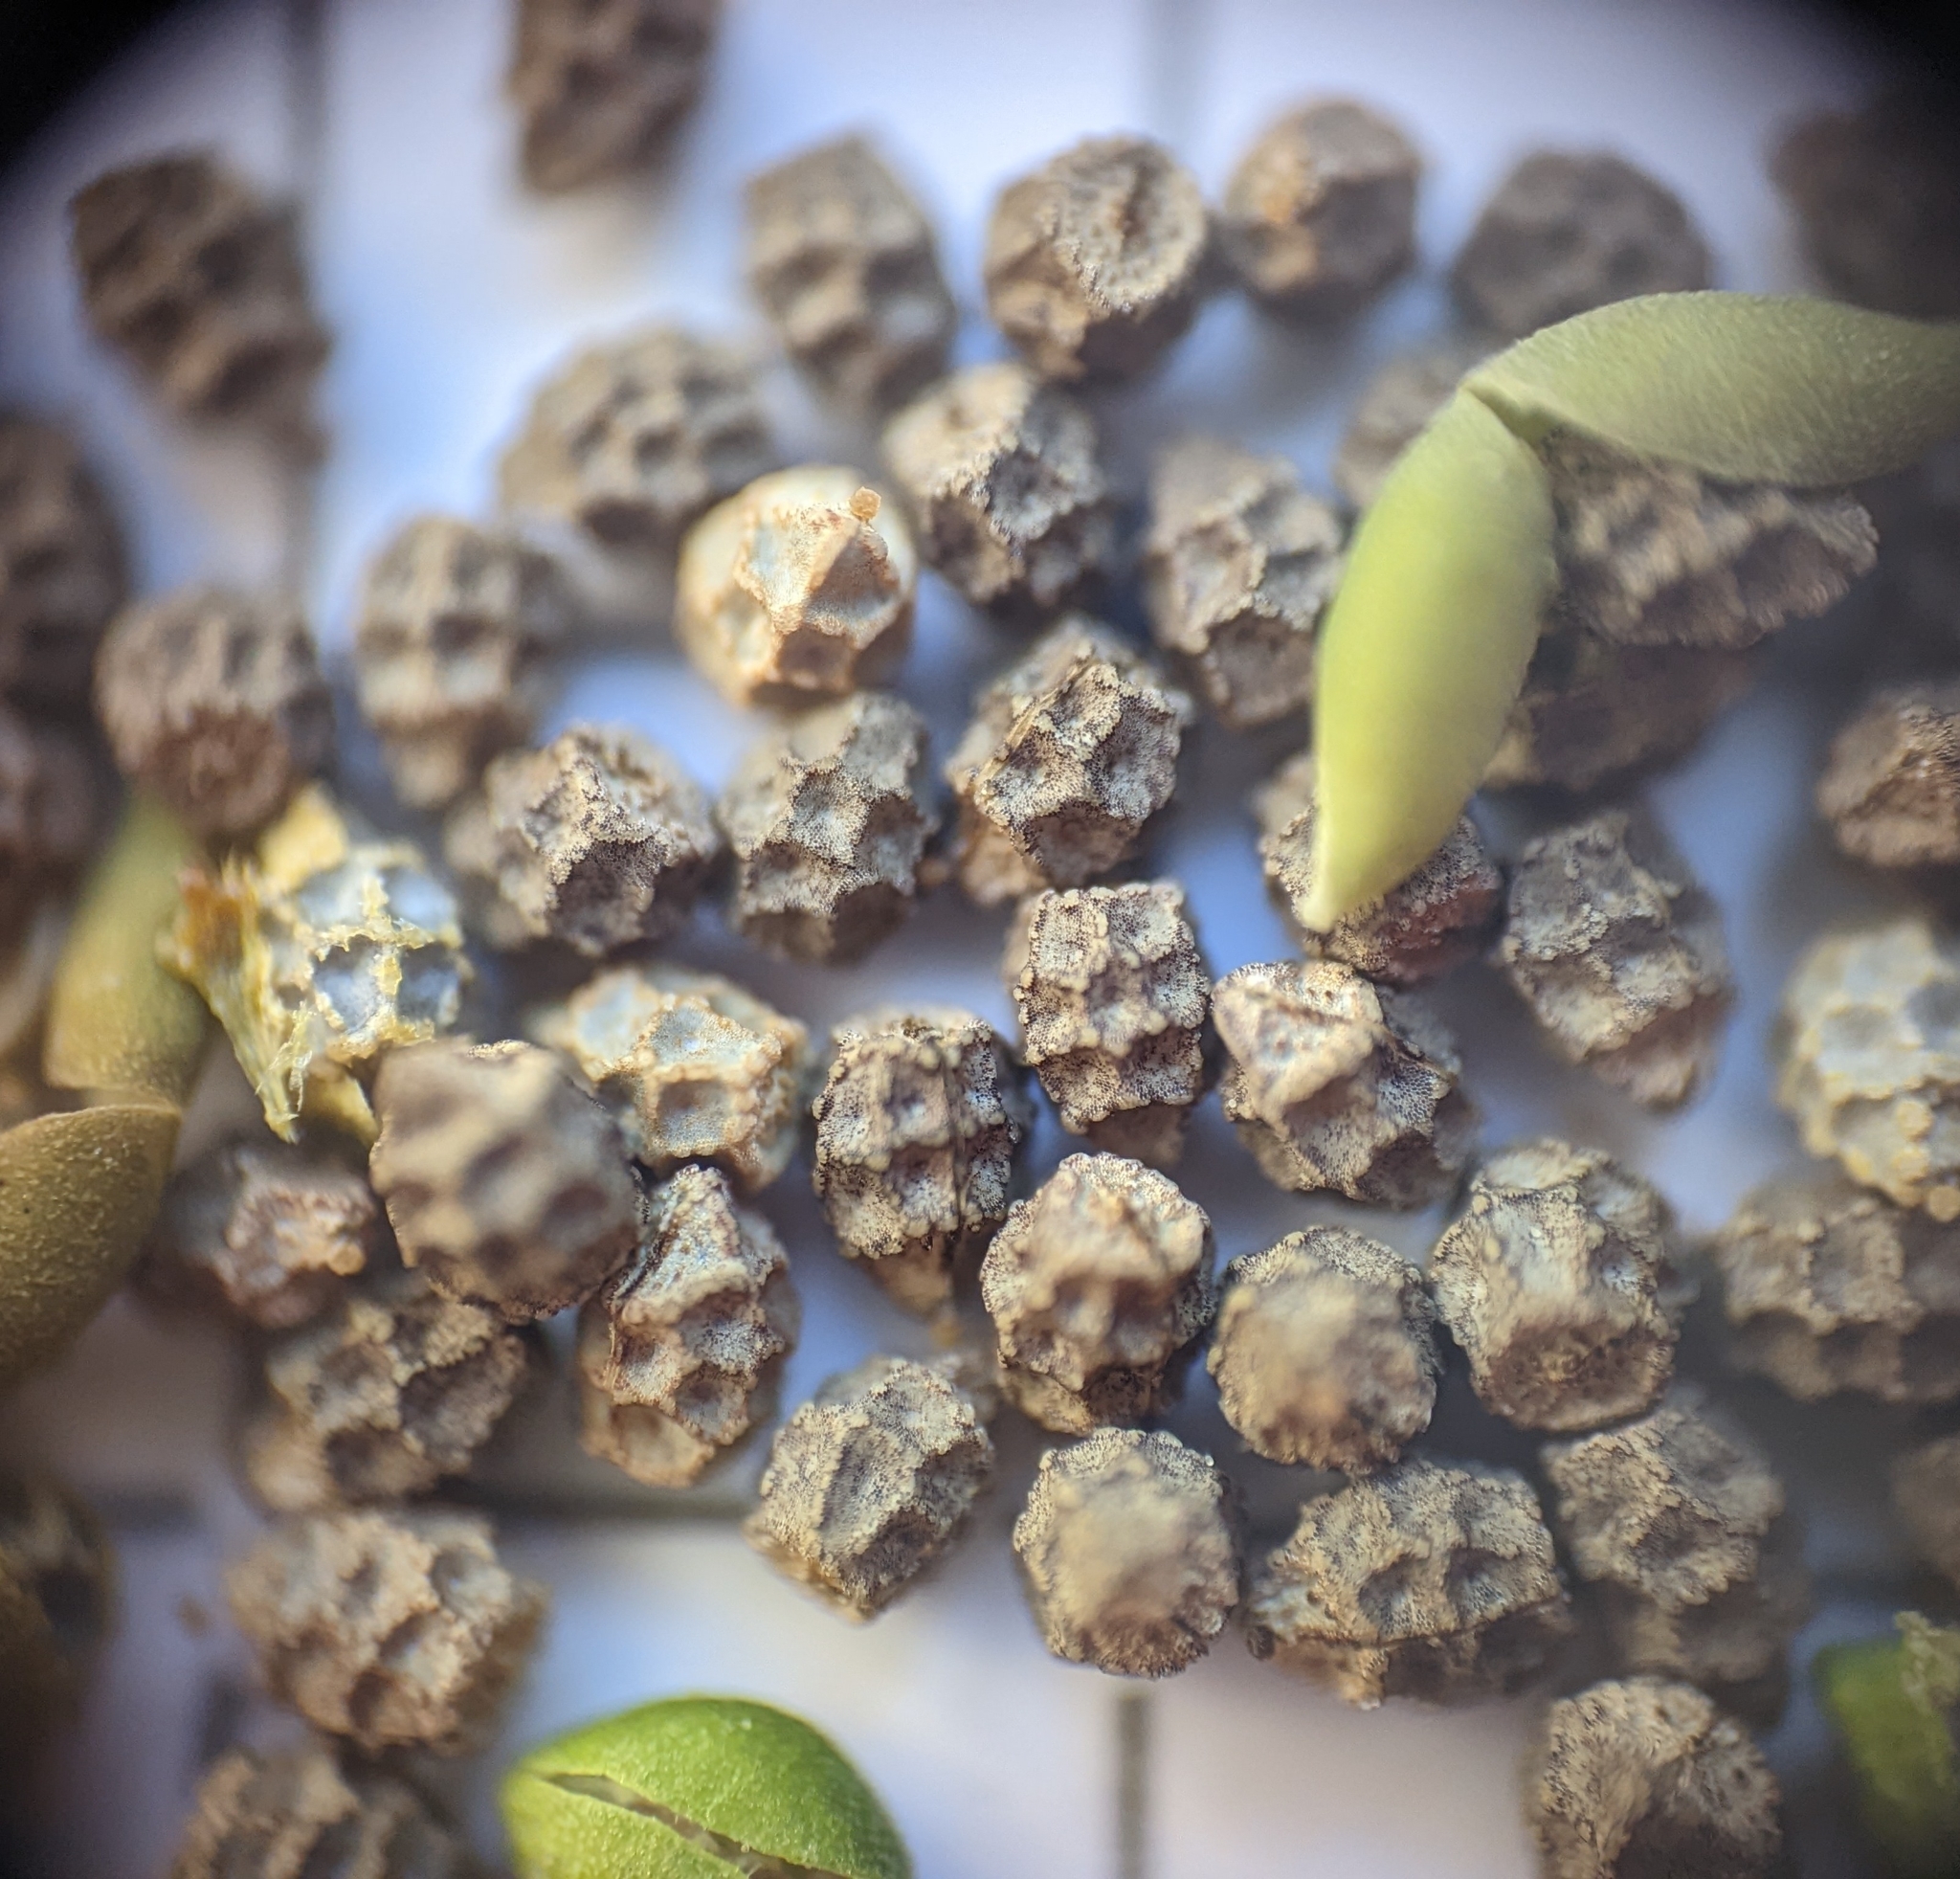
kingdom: Plantae
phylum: Tracheophyta
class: Magnoliopsida
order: Malpighiales
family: Euphorbiaceae
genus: Euphorbia
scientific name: Euphorbia graminea
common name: Grassleaf spurge
